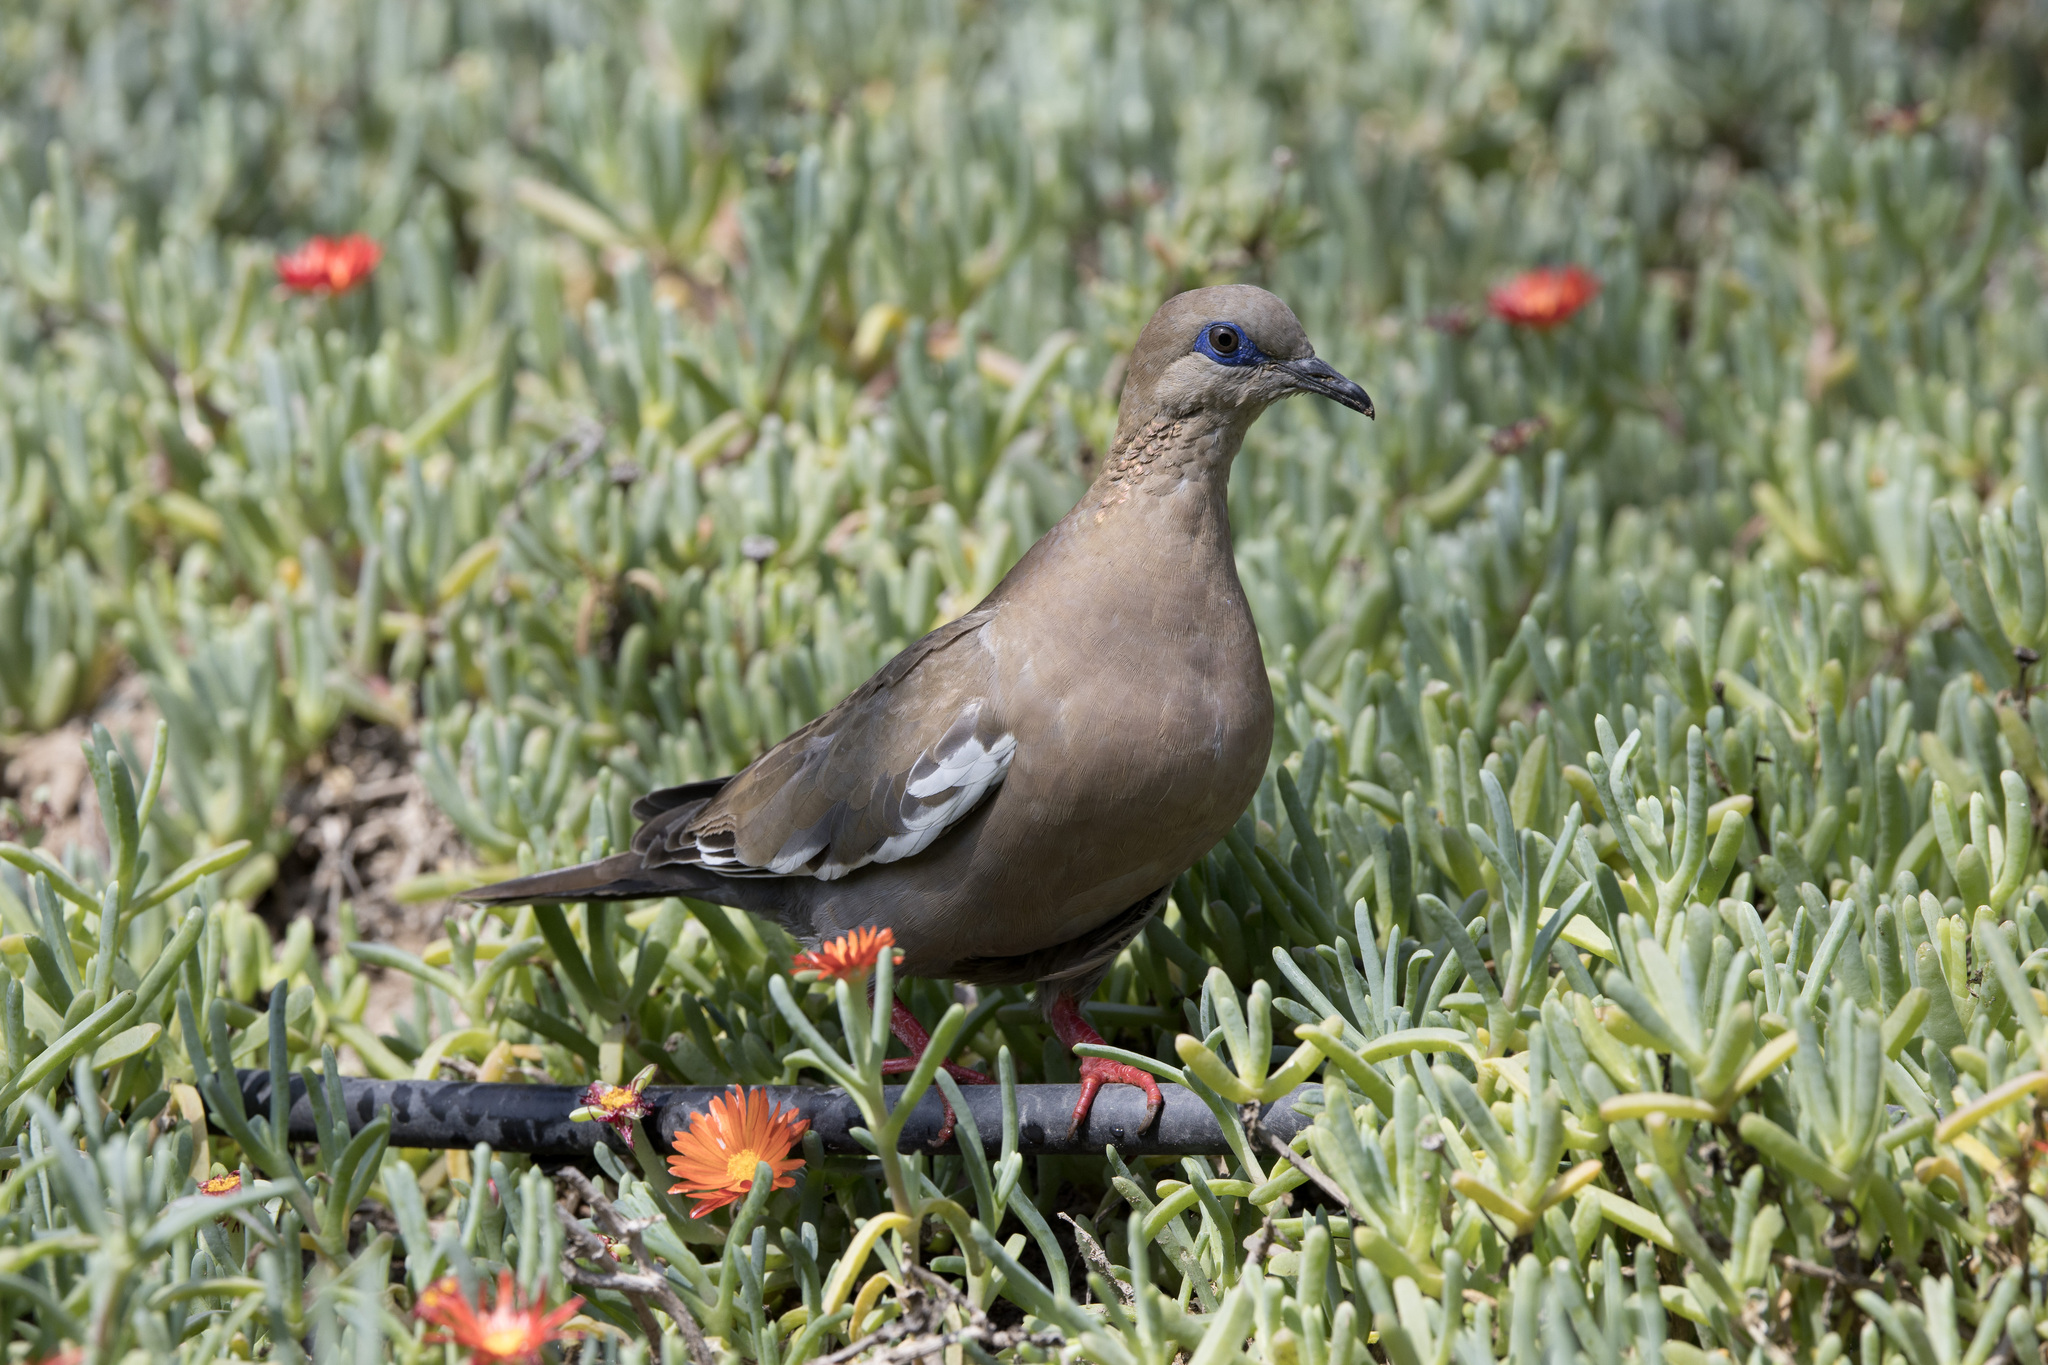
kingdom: Animalia
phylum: Chordata
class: Aves
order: Columbiformes
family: Columbidae
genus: Zenaida
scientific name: Zenaida meloda
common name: West peruvian dove
